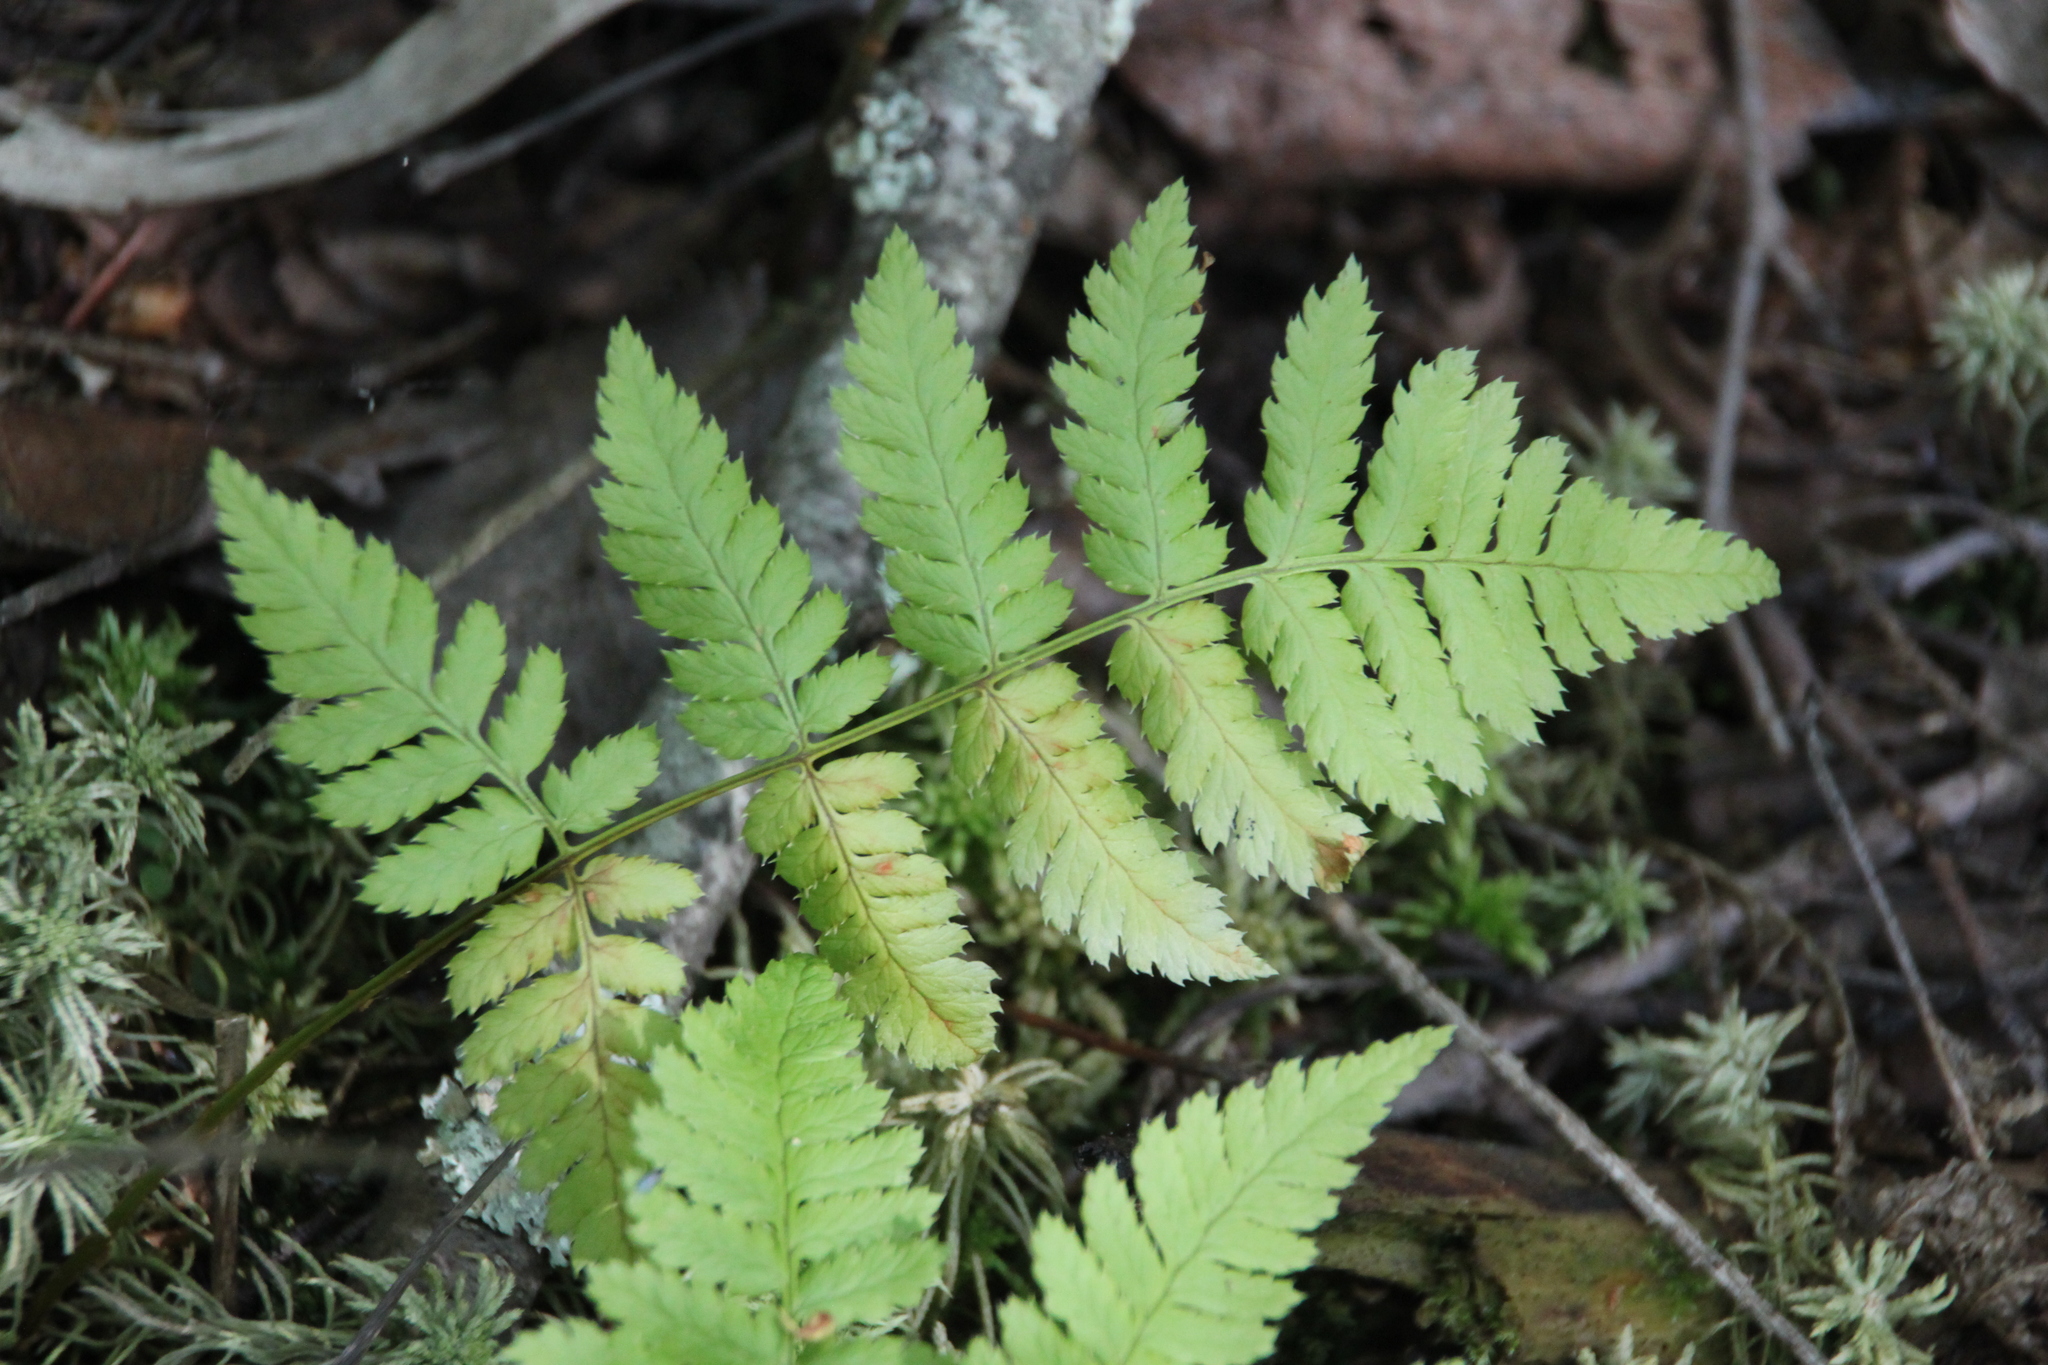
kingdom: Plantae
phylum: Tracheophyta
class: Polypodiopsida
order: Polypodiales
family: Dryopteridaceae
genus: Dryopteris
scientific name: Dryopteris carthusiana
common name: Narrow buckler-fern
